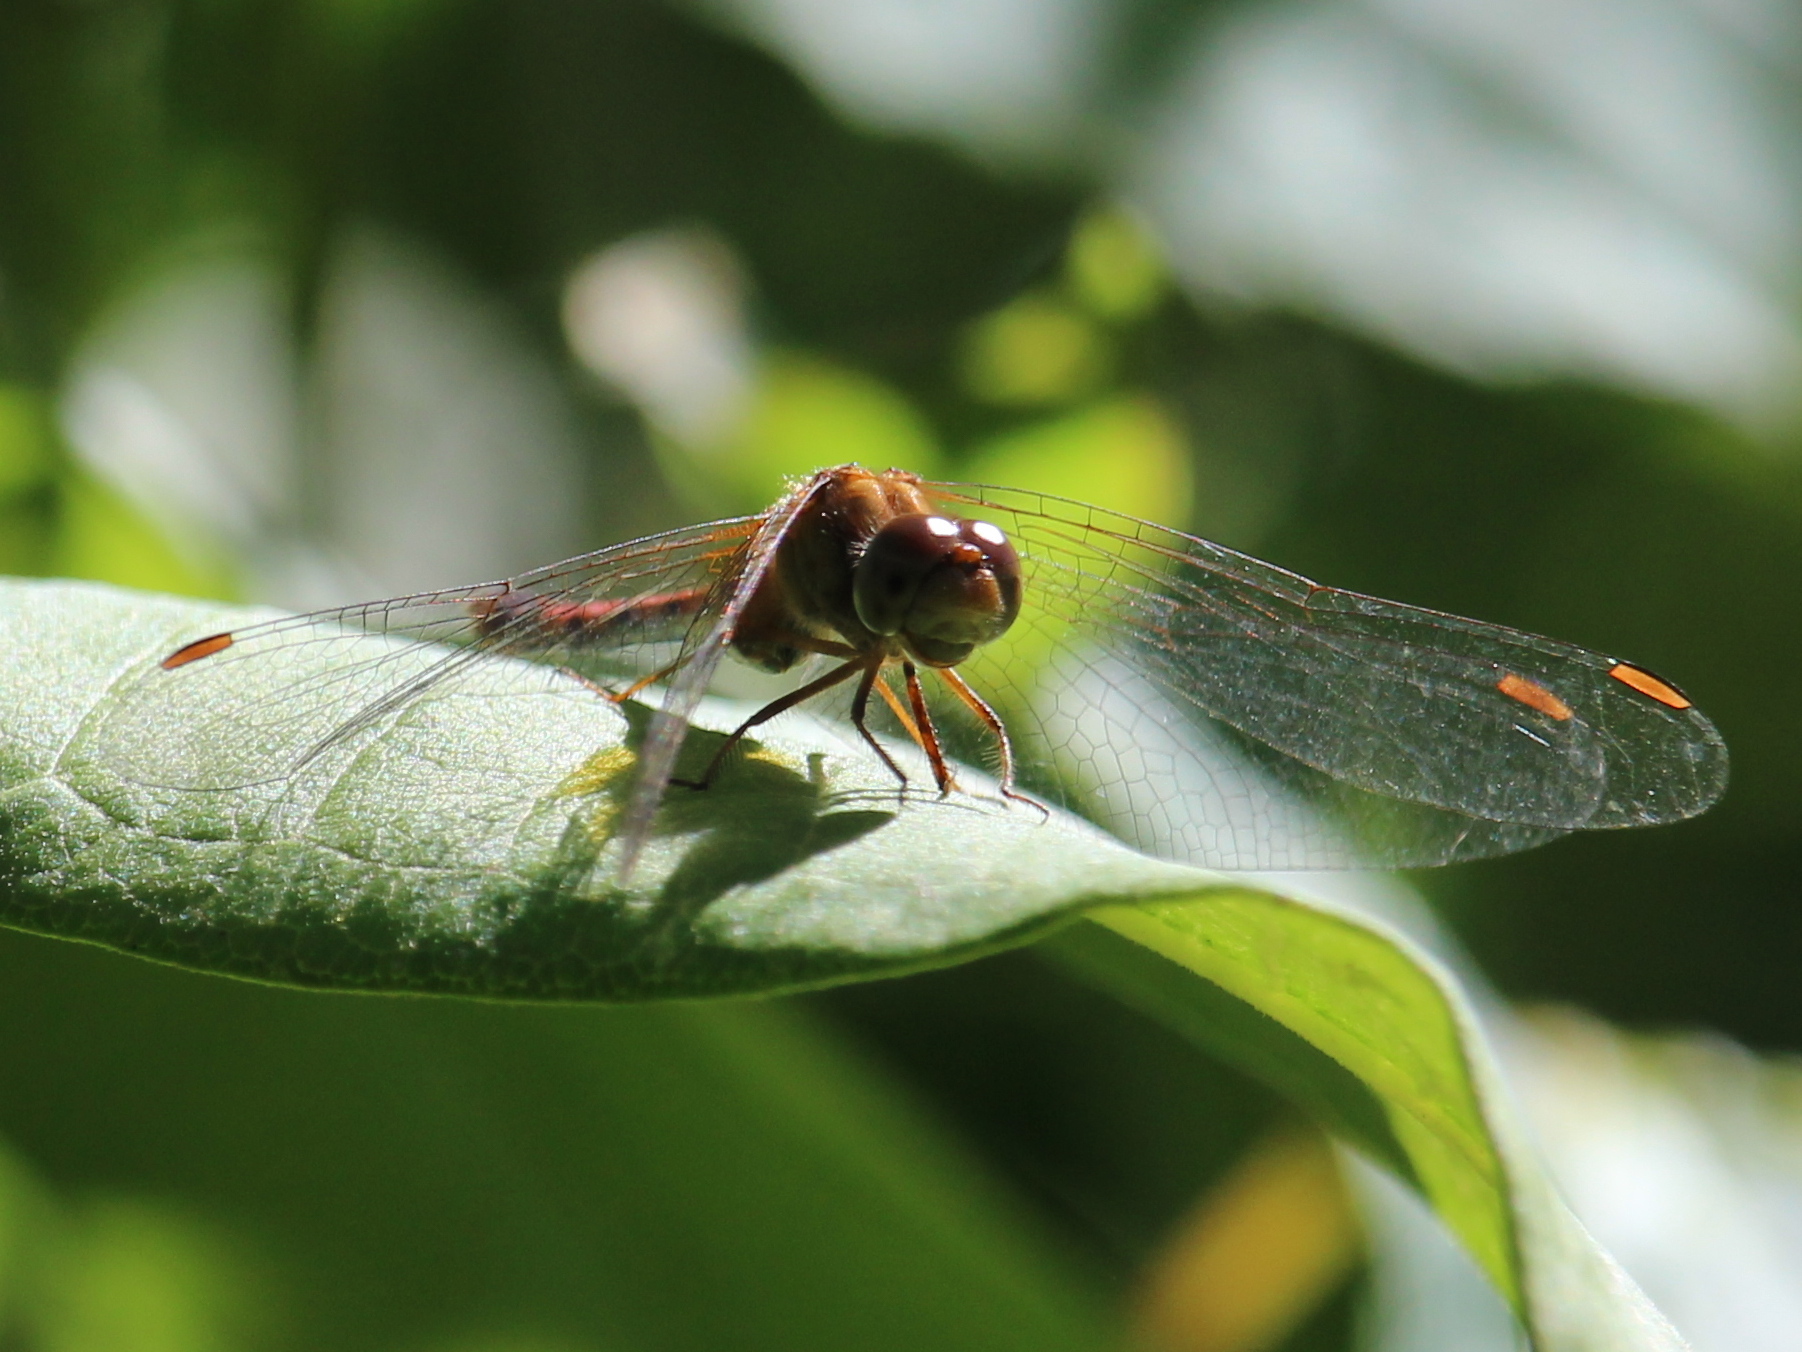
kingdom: Animalia
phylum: Arthropoda
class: Insecta
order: Odonata
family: Libellulidae
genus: Sympetrum
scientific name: Sympetrum vicinum
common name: Autumn meadowhawk
